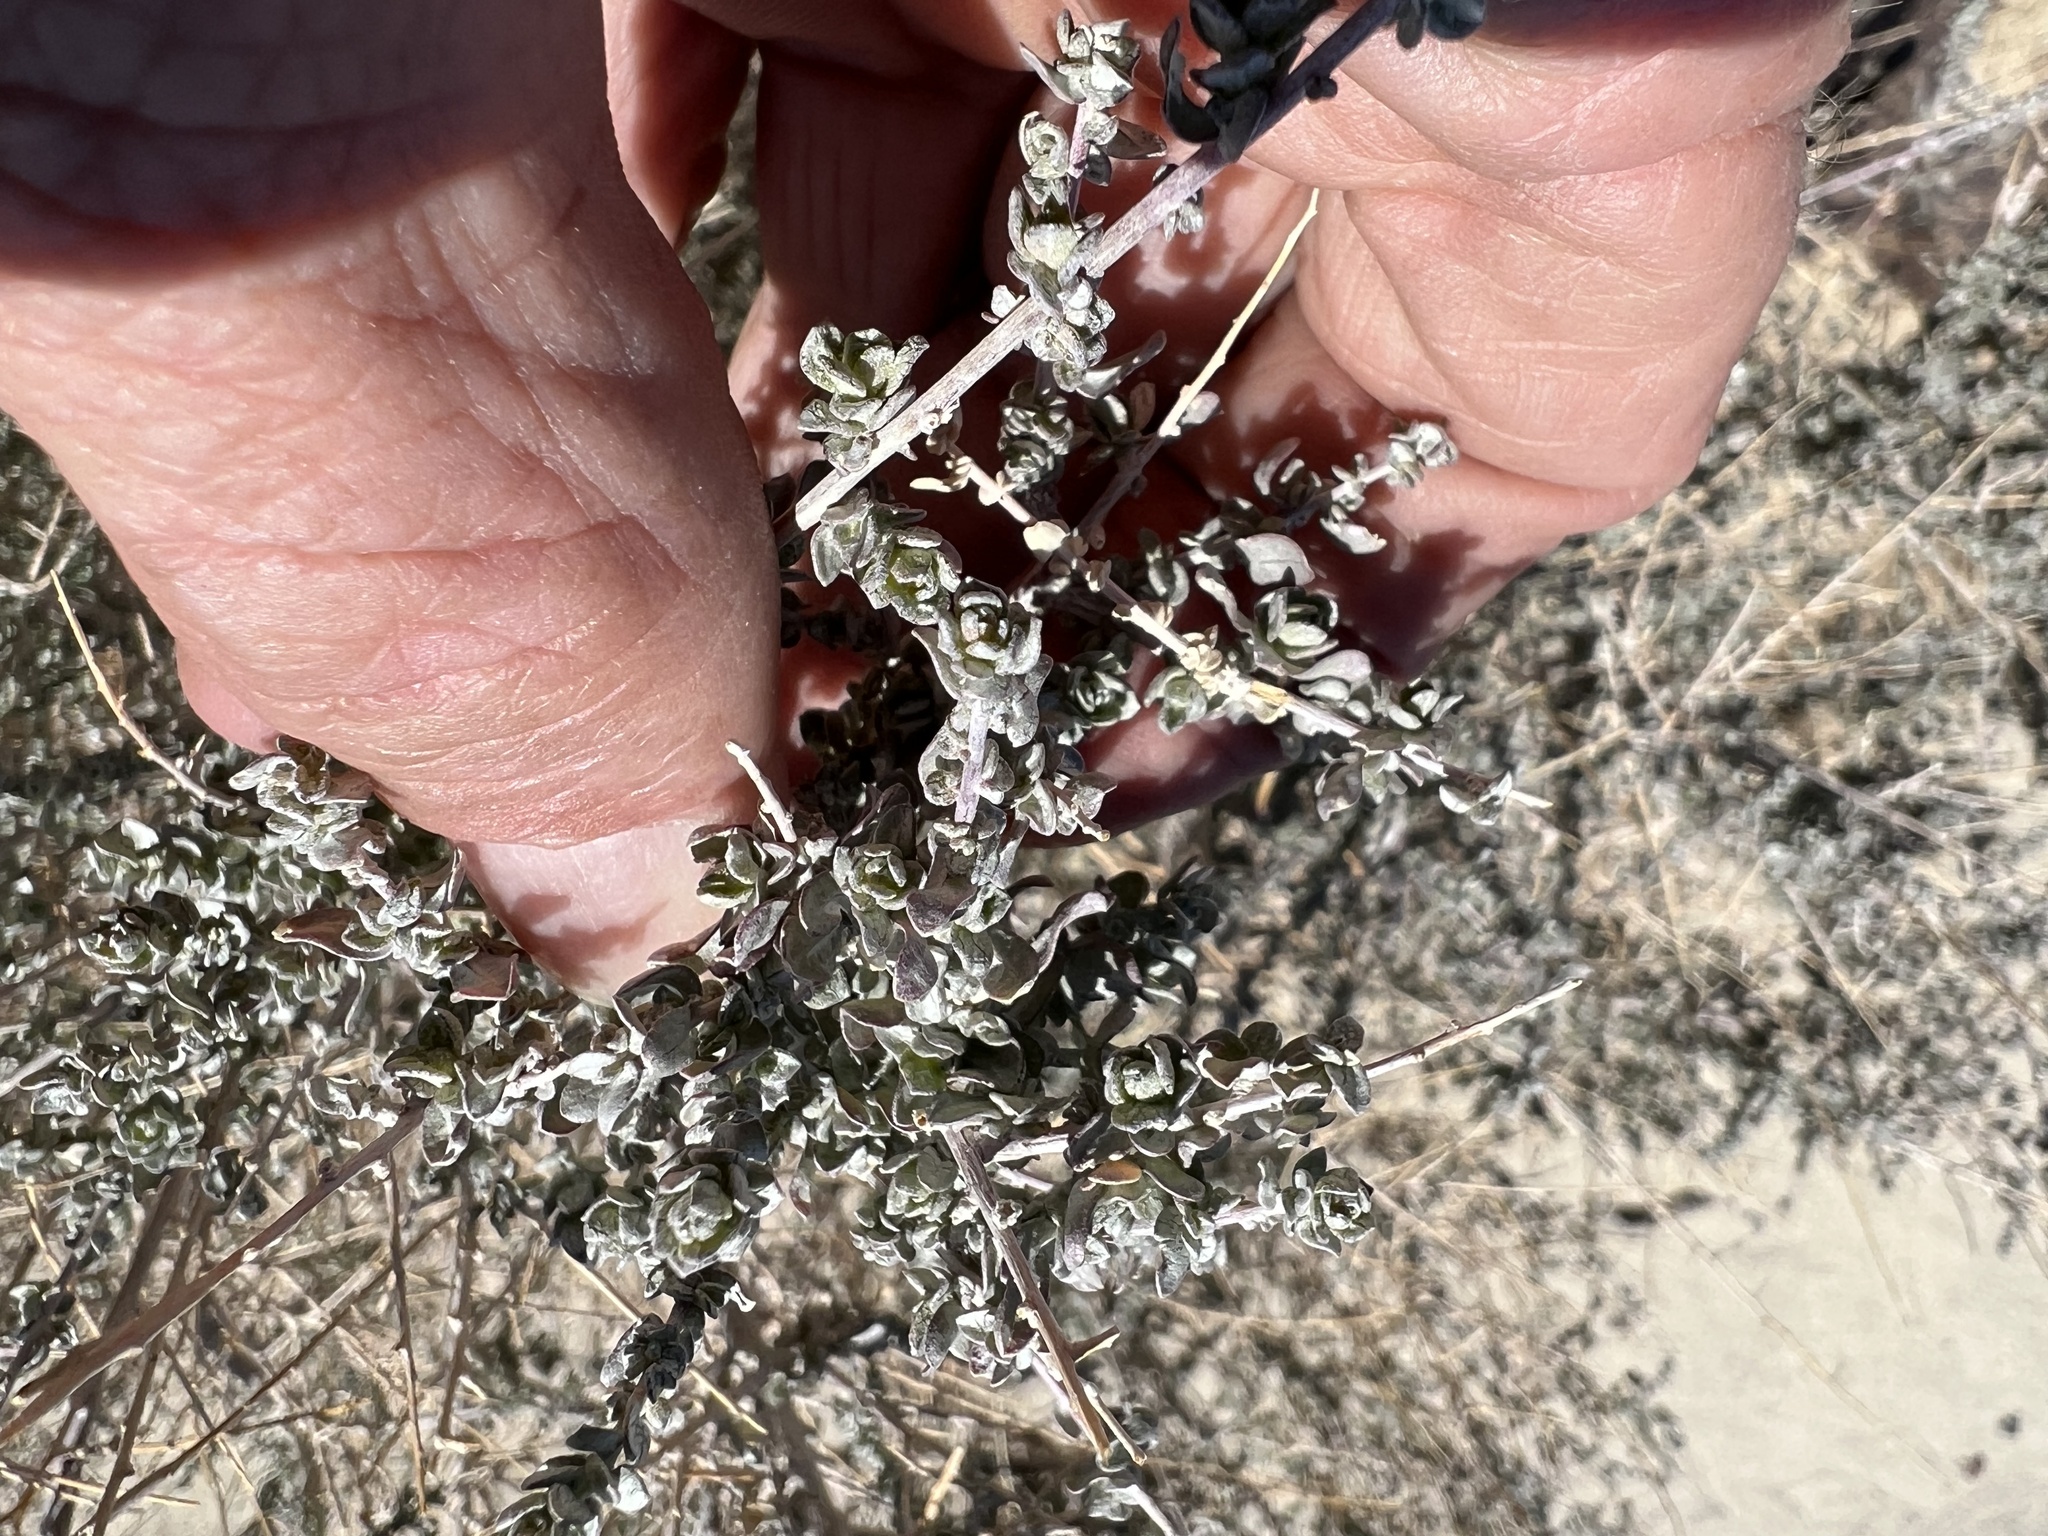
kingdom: Plantae
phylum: Tracheophyta
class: Magnoliopsida
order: Caryophyllales
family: Amaranthaceae
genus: Atriplex
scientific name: Atriplex polycarpa
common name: Desert saltbush
